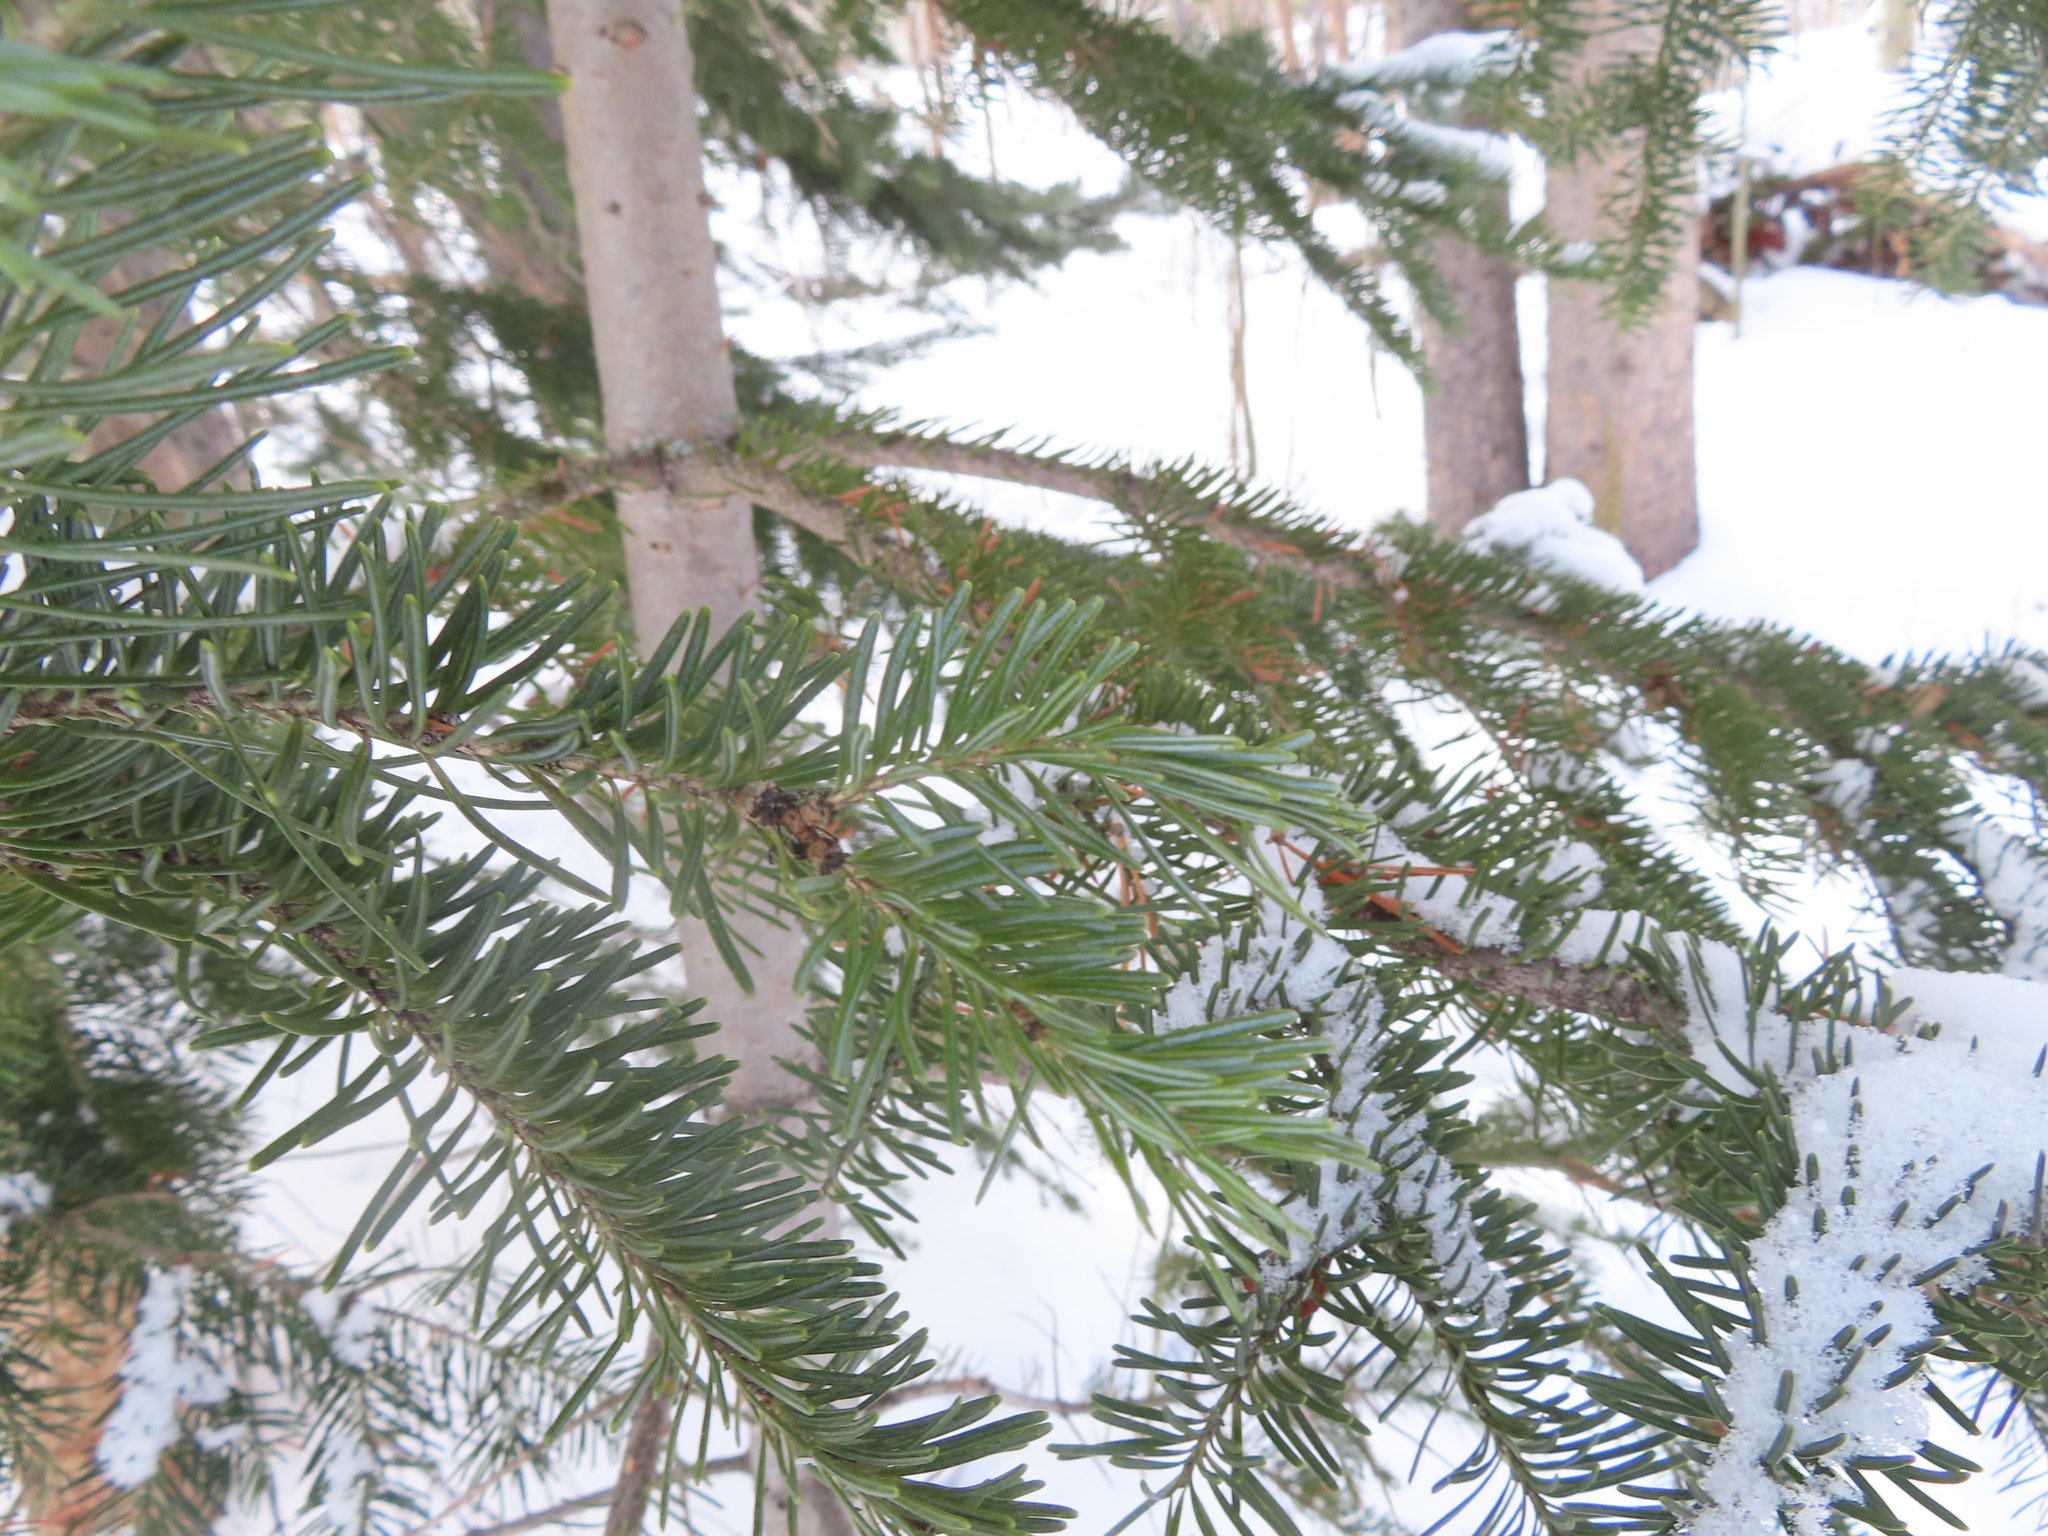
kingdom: Plantae
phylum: Tracheophyta
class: Pinopsida
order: Pinales
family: Pinaceae
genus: Abies
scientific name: Abies lasiocarpa
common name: Subalpine fir
